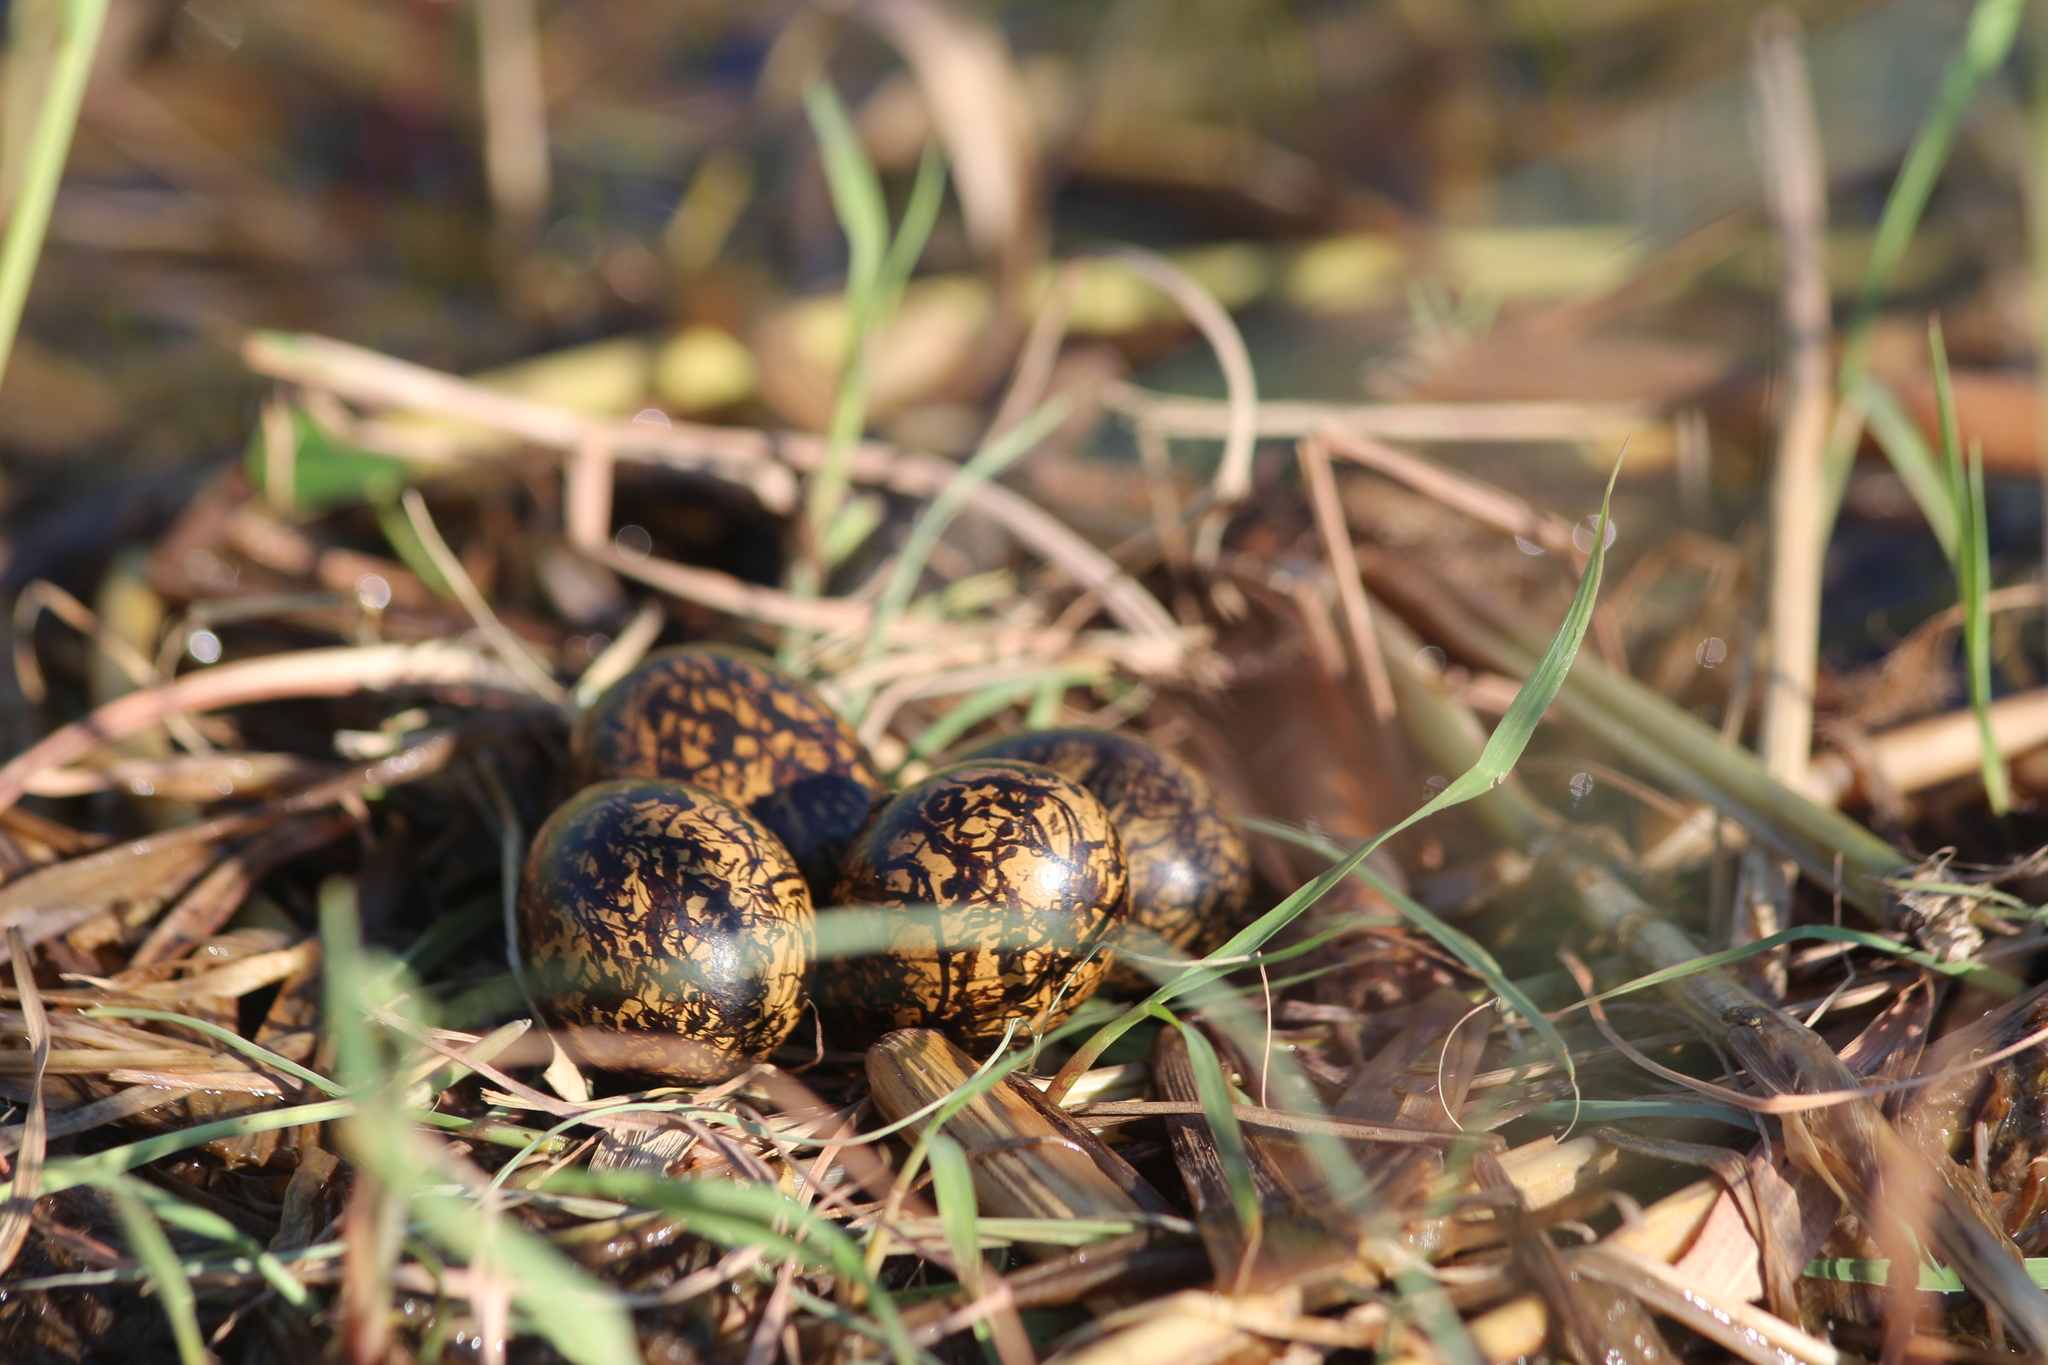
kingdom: Animalia
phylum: Chordata
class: Aves
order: Charadriiformes
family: Jacanidae
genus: Actophilornis
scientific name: Actophilornis africanus
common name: African jacana
